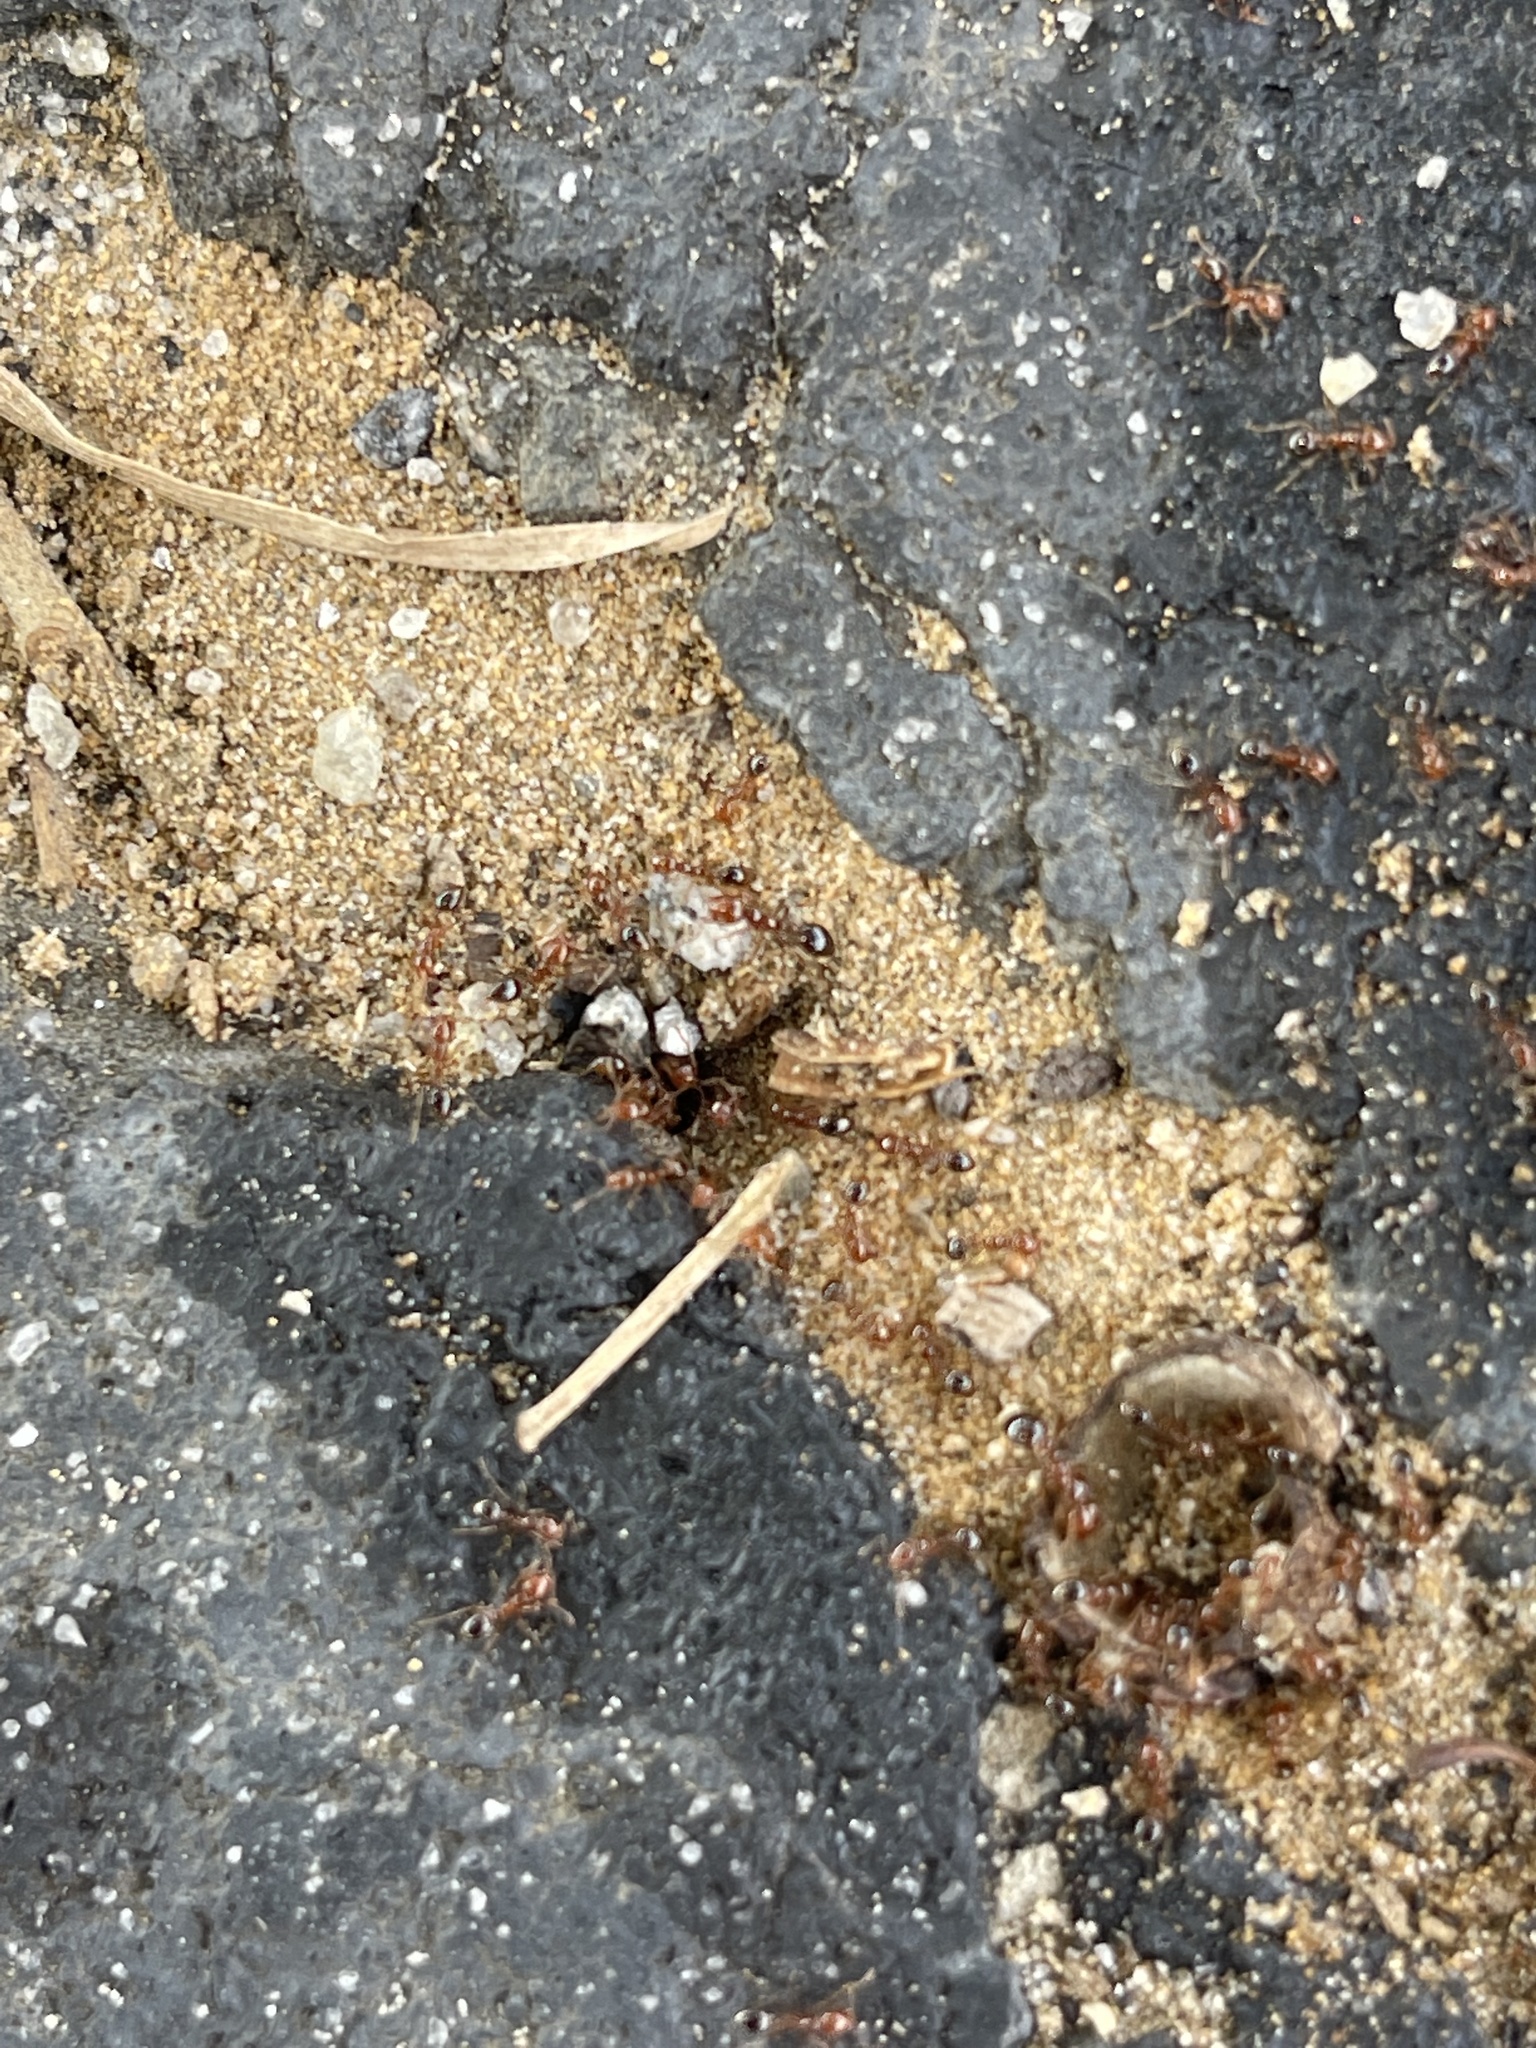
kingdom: Animalia
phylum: Arthropoda
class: Insecta
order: Hymenoptera
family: Formicidae
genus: Solenopsis
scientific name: Solenopsis invicta
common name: Red imported fire ant
